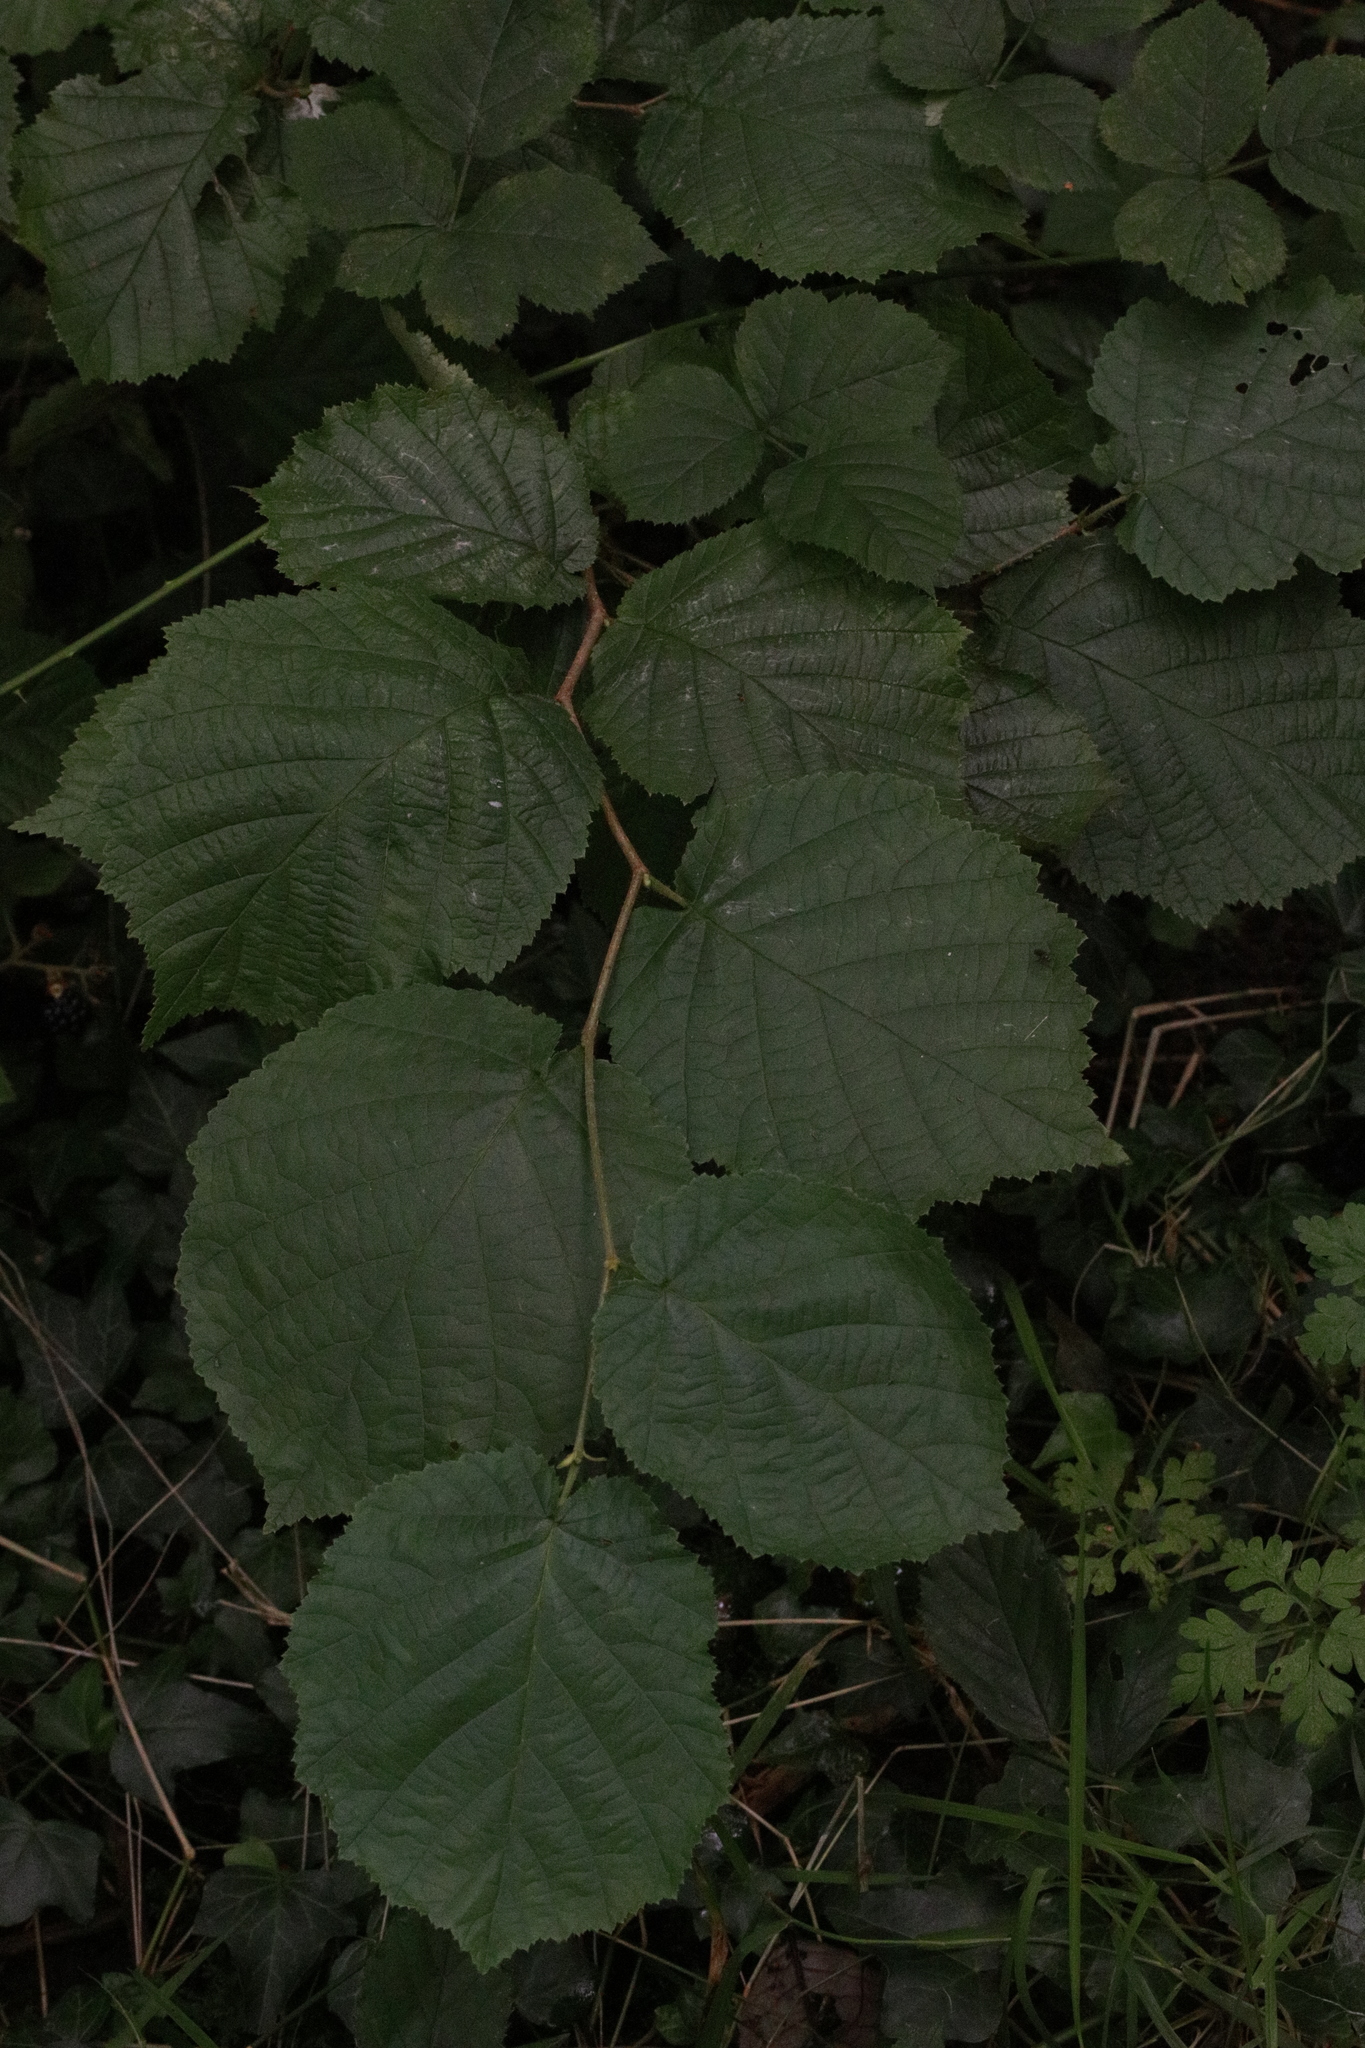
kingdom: Plantae
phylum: Tracheophyta
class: Magnoliopsida
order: Fagales
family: Betulaceae
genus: Corylus
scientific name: Corylus avellana
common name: European hazel
